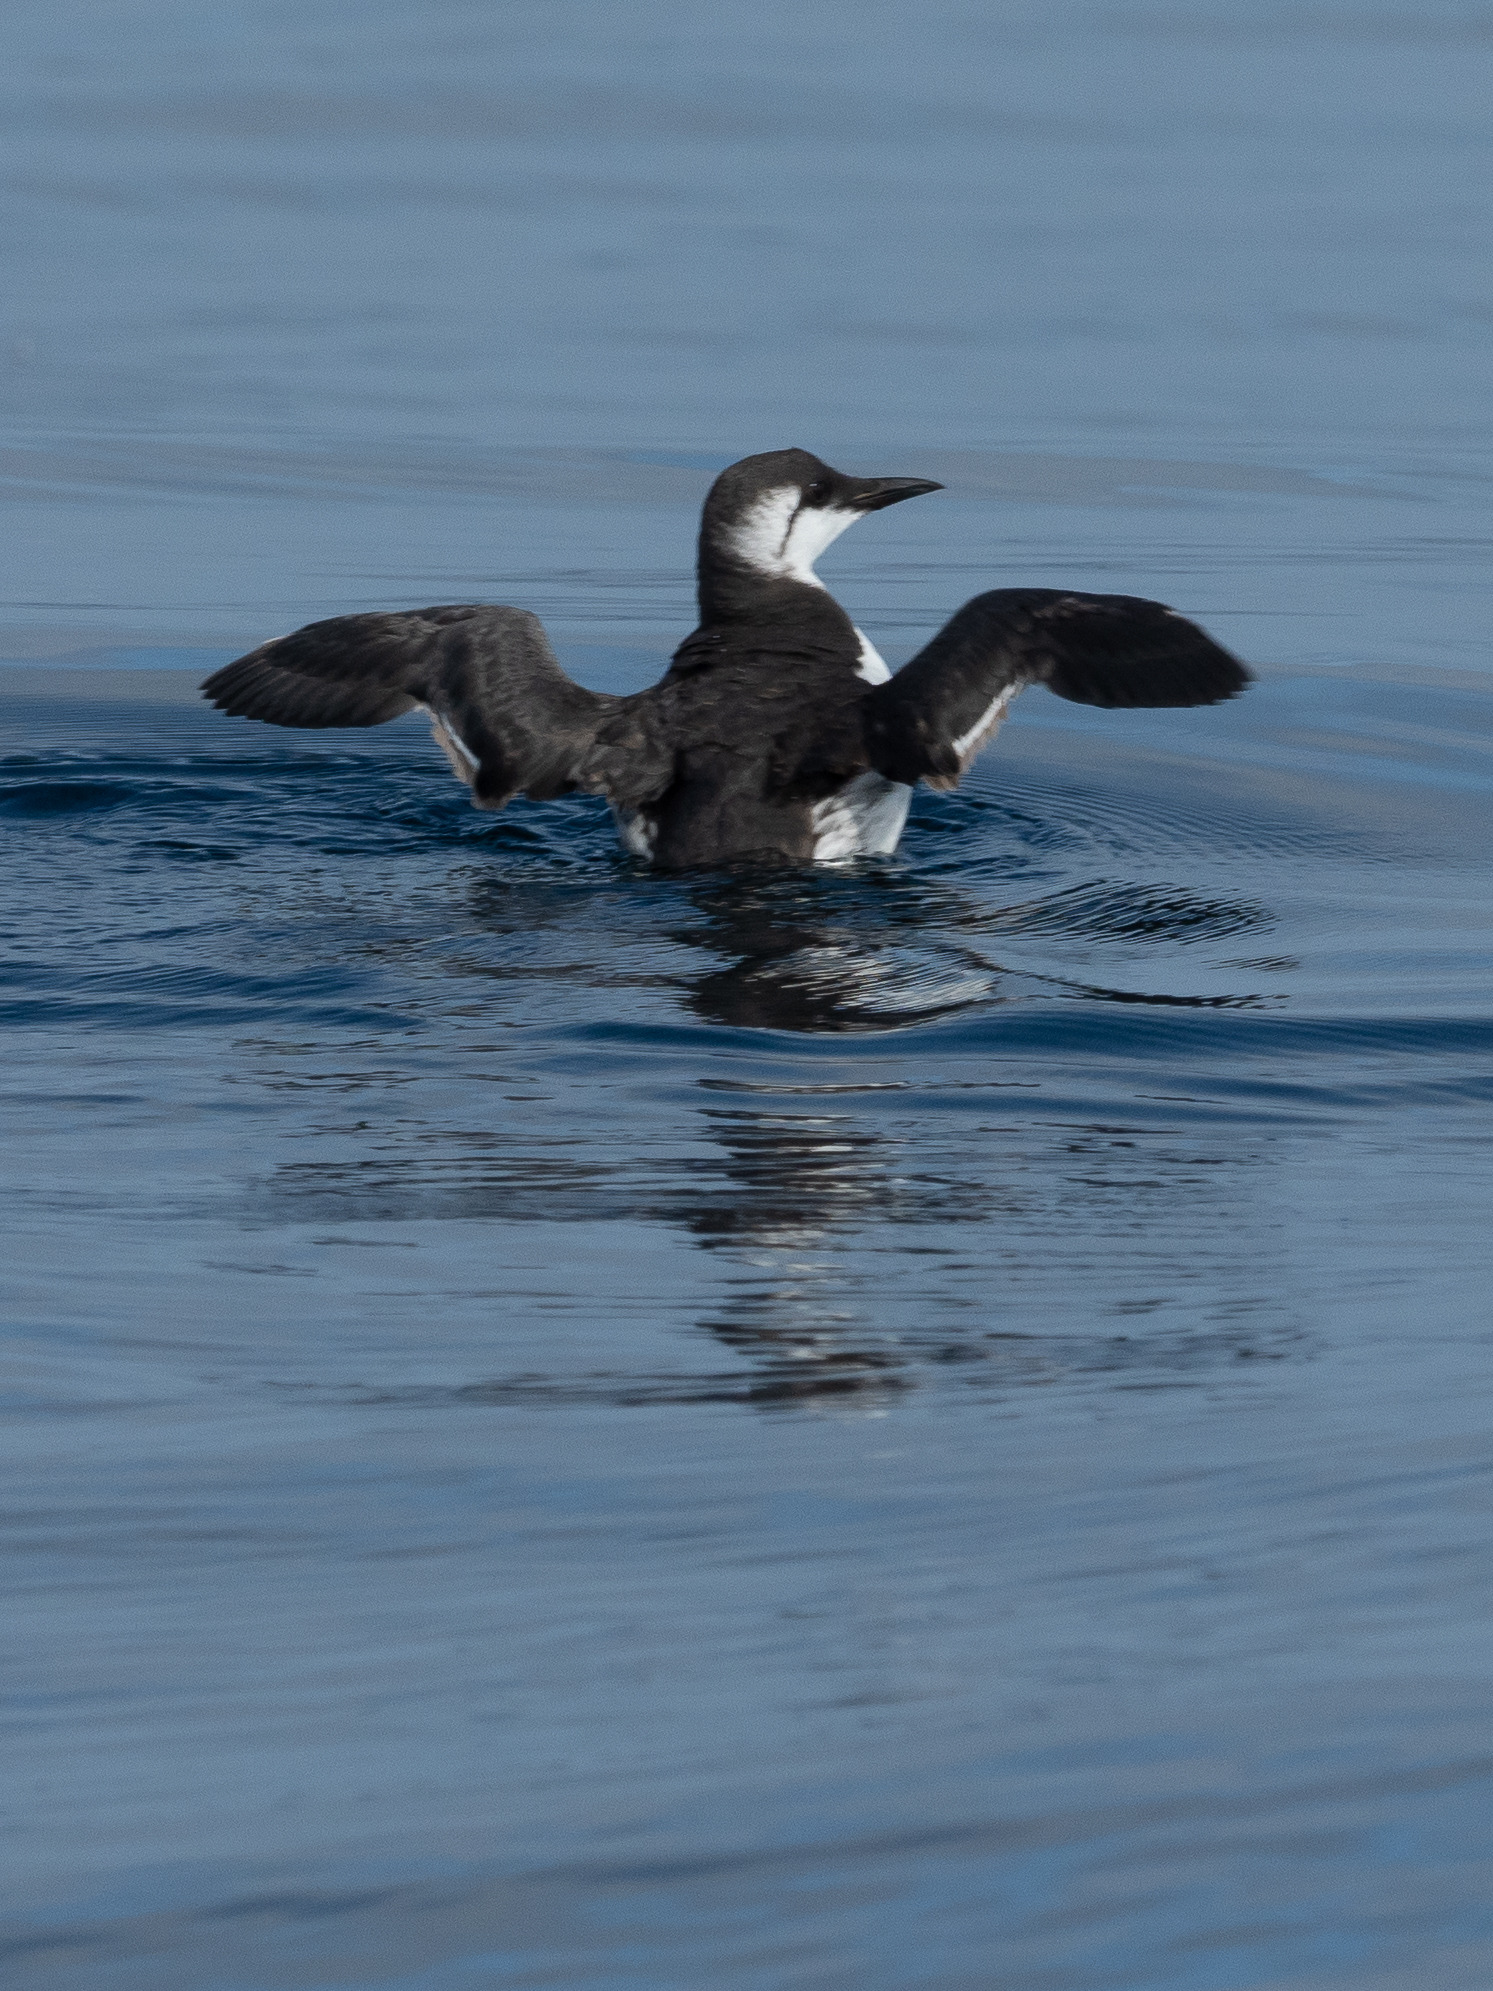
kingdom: Animalia
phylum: Chordata
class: Aves
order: Charadriiformes
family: Alcidae
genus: Uria
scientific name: Uria aalge
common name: Common murre
